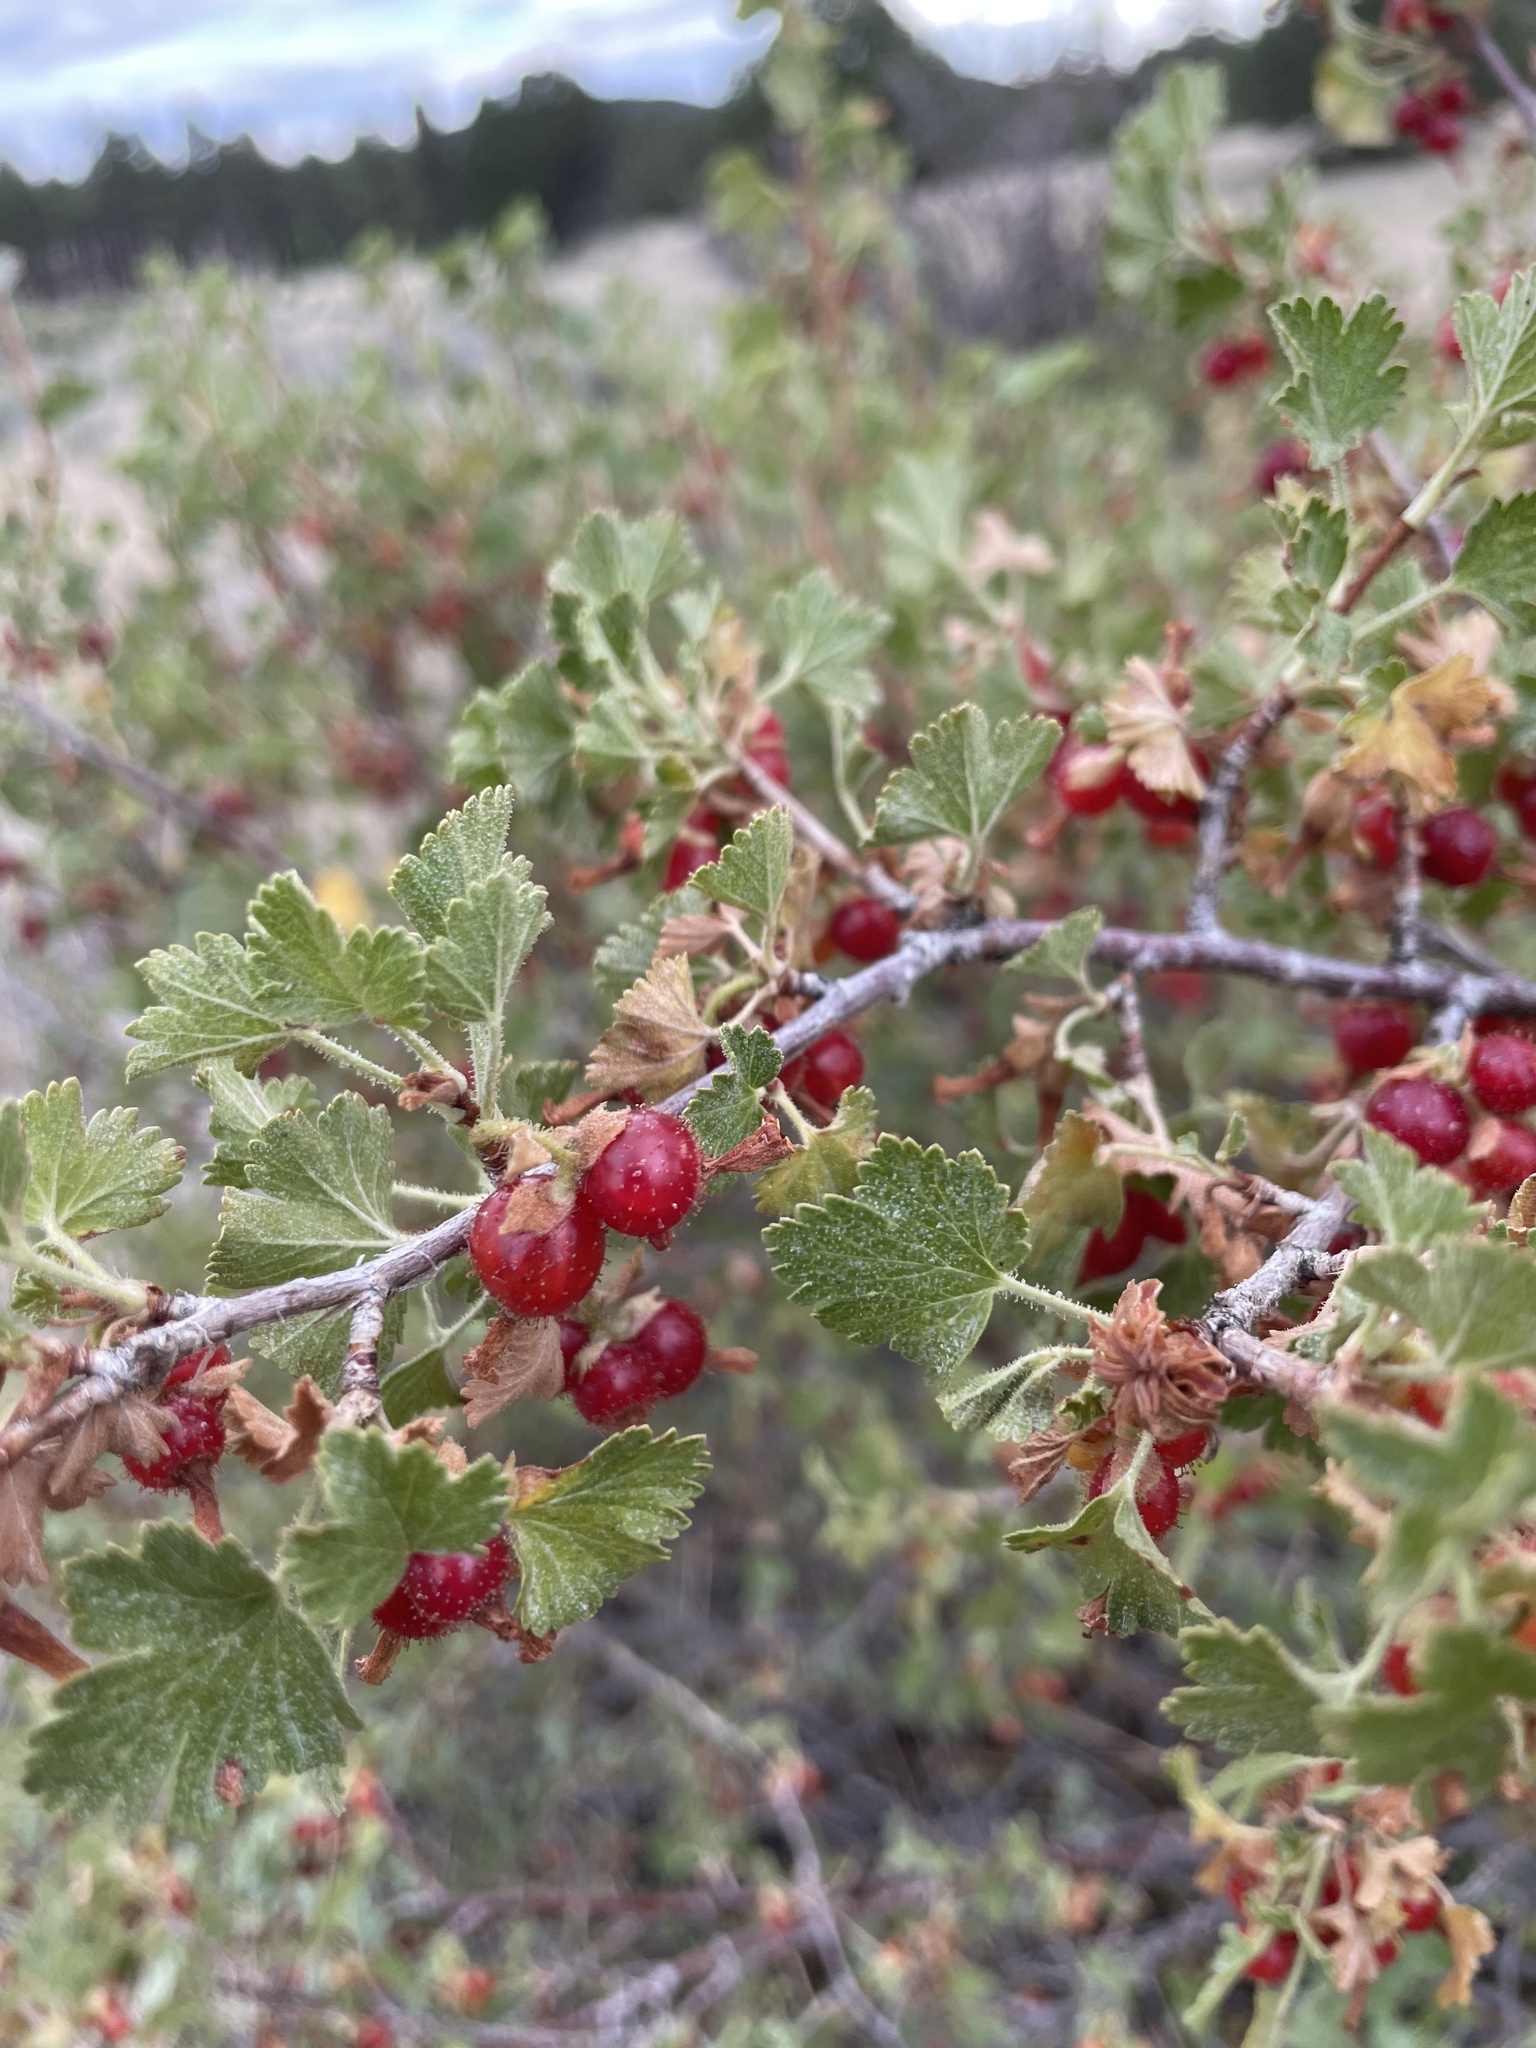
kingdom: Plantae
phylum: Tracheophyta
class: Magnoliopsida
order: Saxifragales
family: Grossulariaceae
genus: Ribes
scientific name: Ribes cereum
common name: Wax currant
